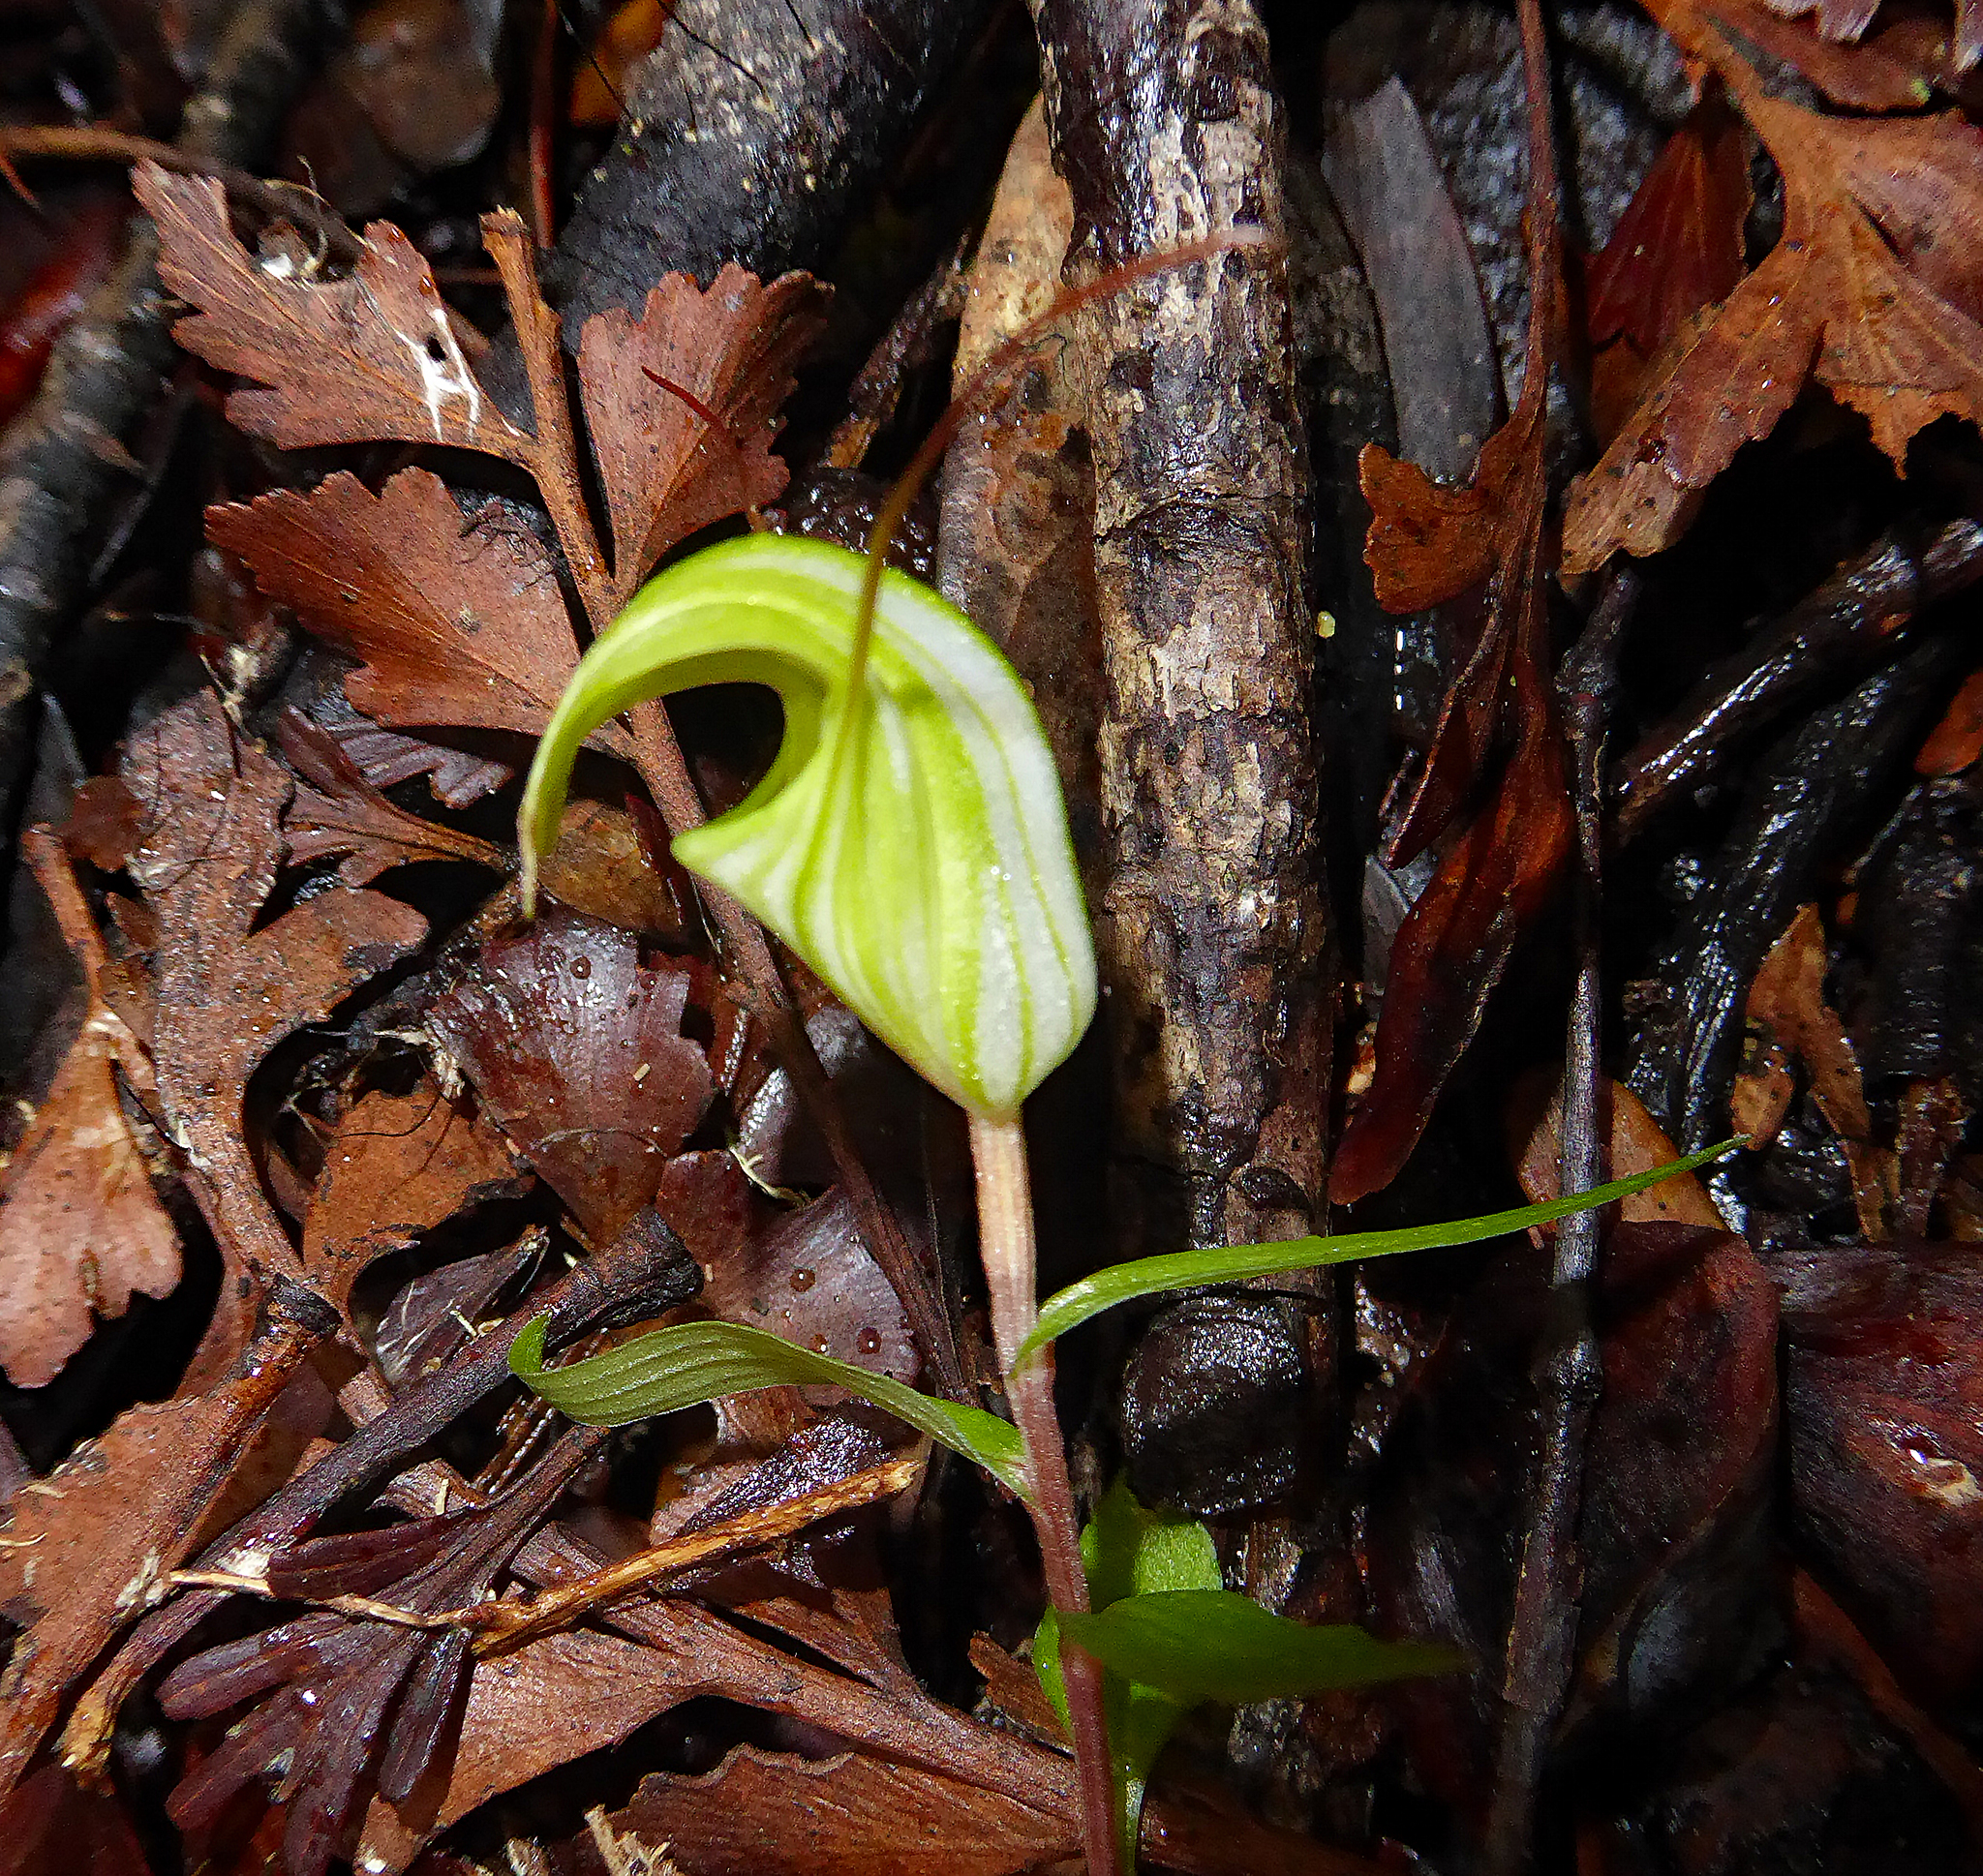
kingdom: Plantae
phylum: Tracheophyta
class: Liliopsida
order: Asparagales
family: Orchidaceae
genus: Pterostylis
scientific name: Pterostylis brumalis
